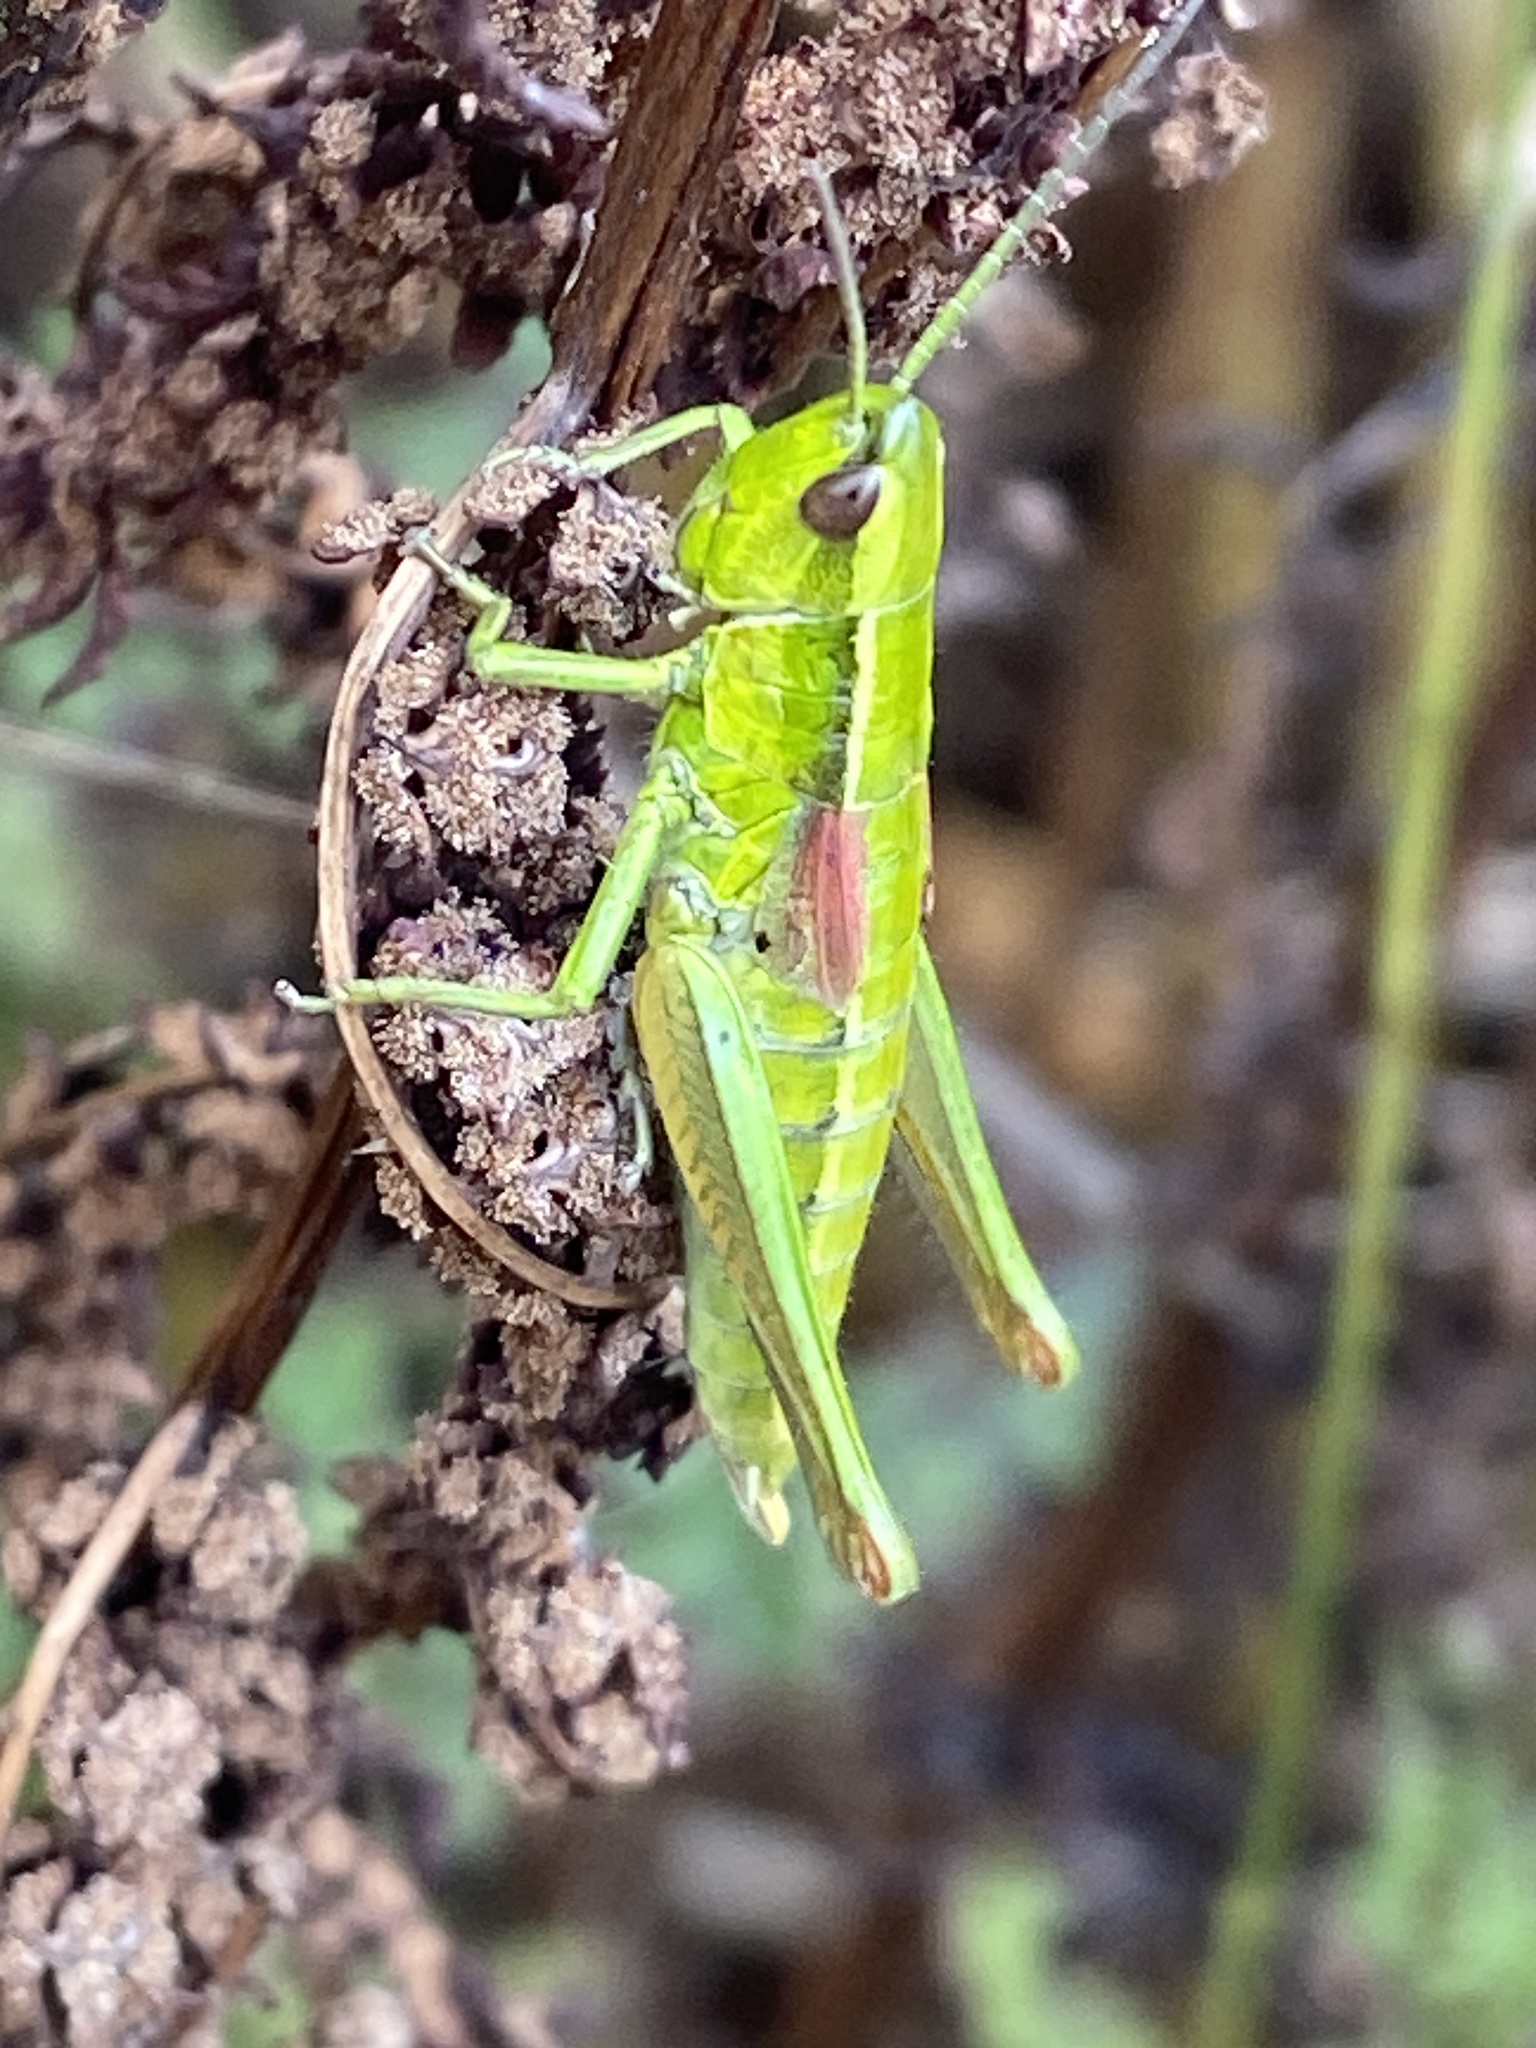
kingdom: Animalia
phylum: Arthropoda
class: Insecta
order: Orthoptera
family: Acrididae
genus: Euthystira
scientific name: Euthystira brachyptera
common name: Small gold grasshopper
